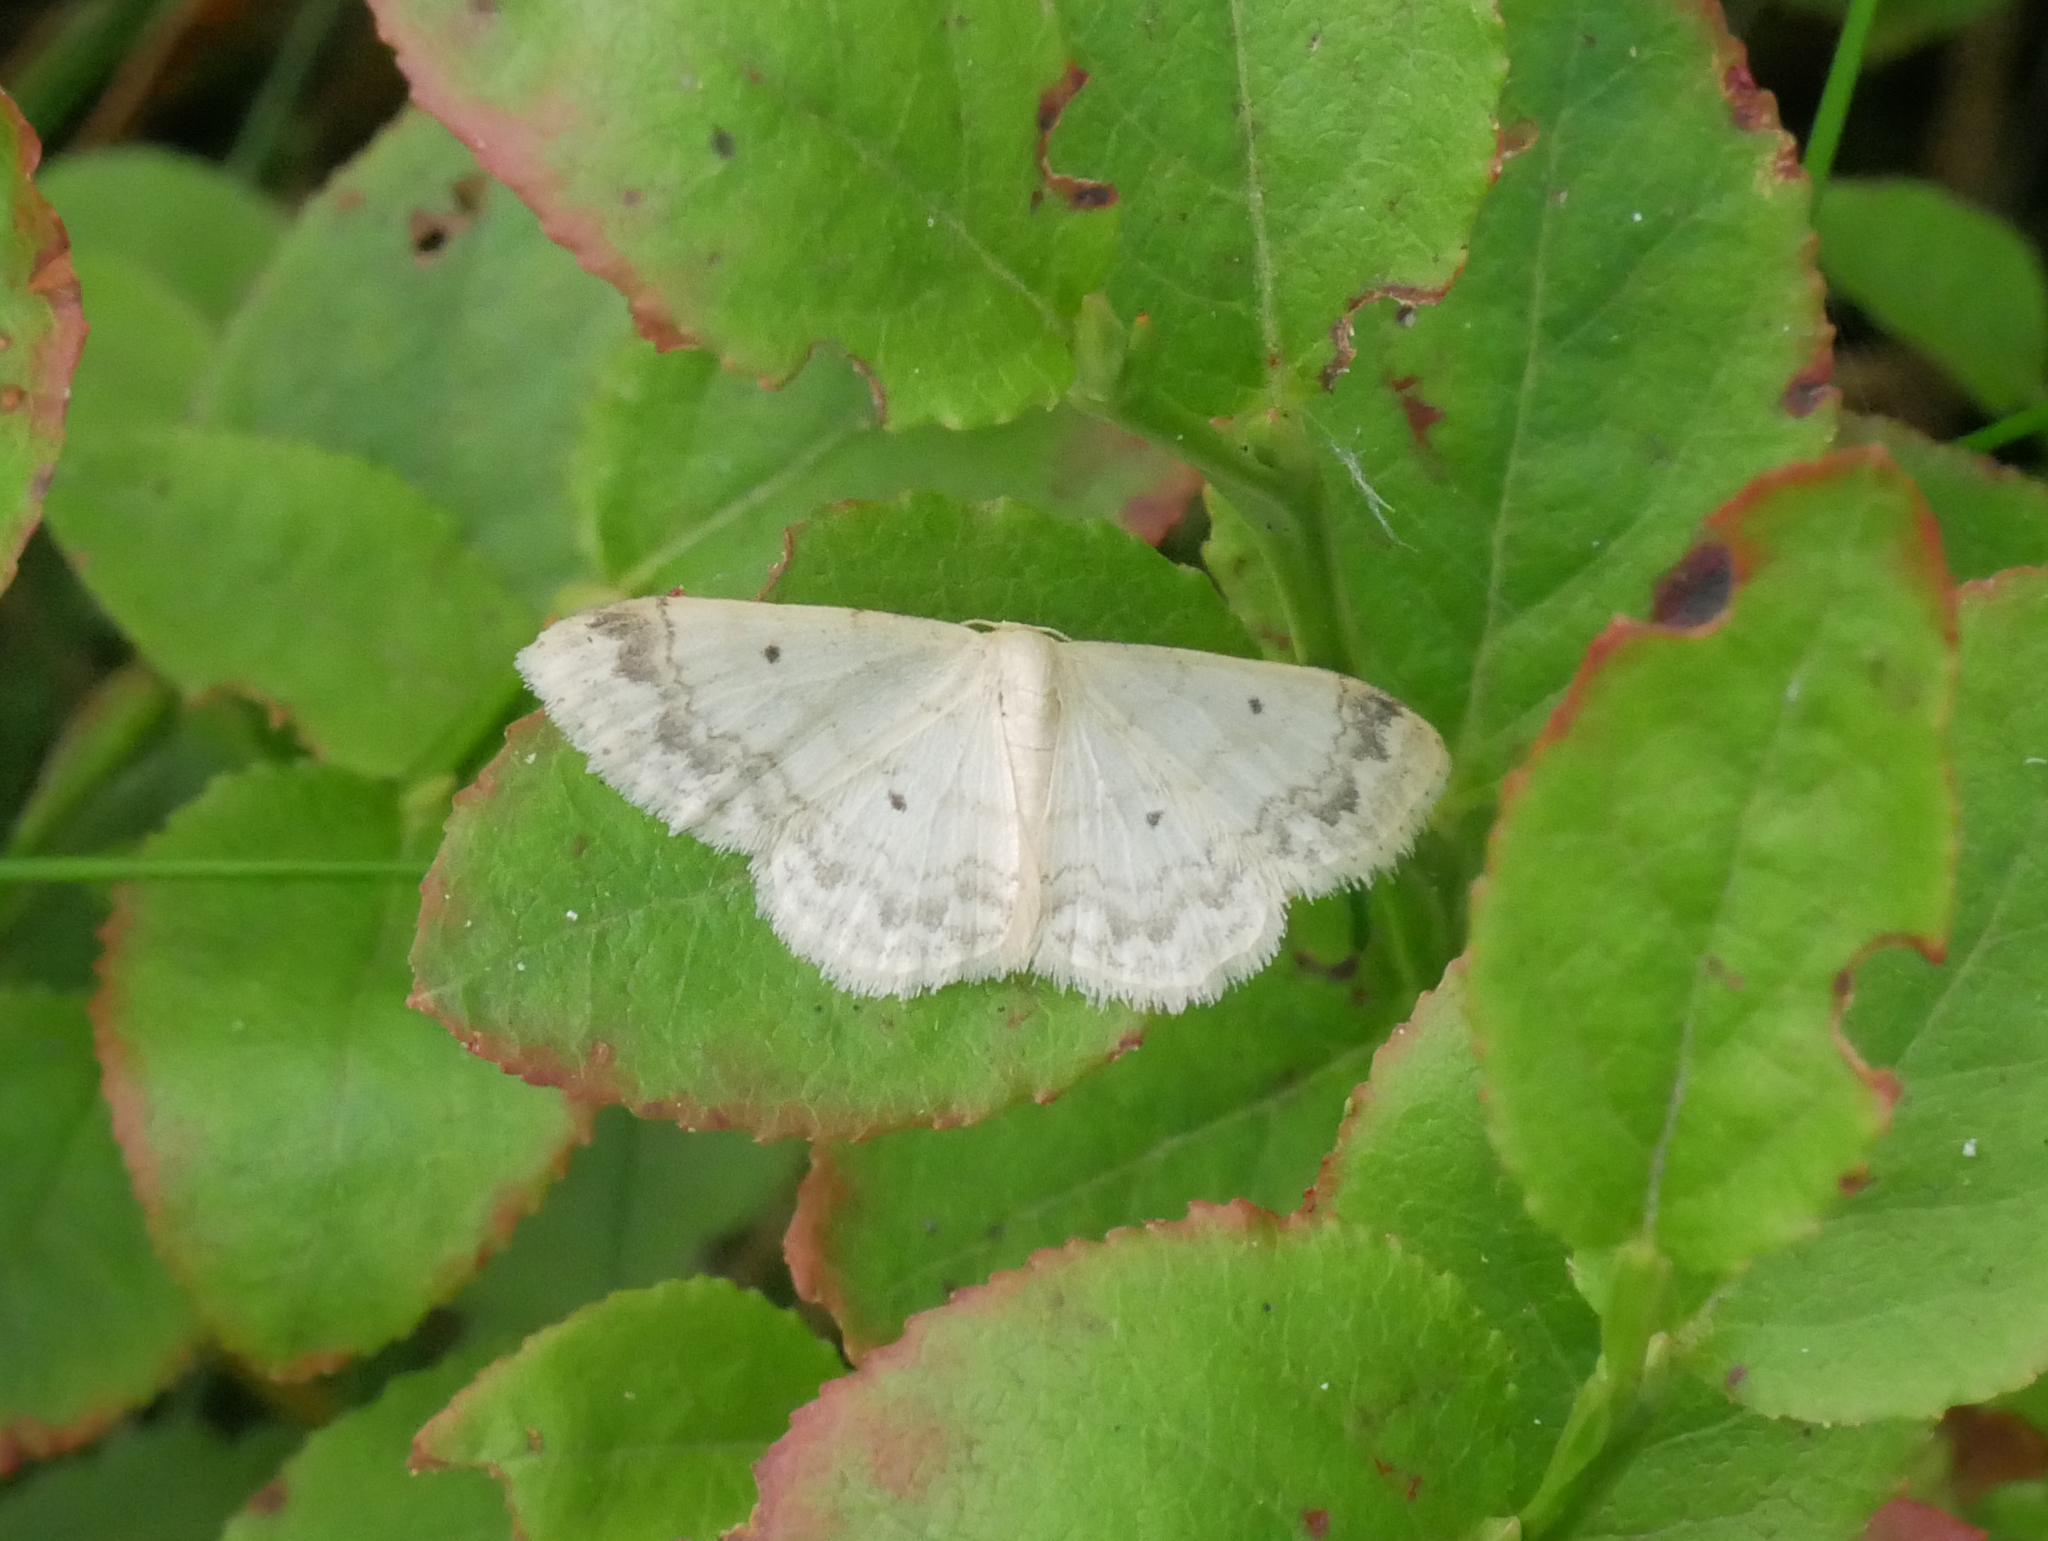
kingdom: Animalia
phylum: Arthropoda
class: Insecta
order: Lepidoptera
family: Geometridae
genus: Idaea
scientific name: Idaea biselata
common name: Small fan-footed wave
